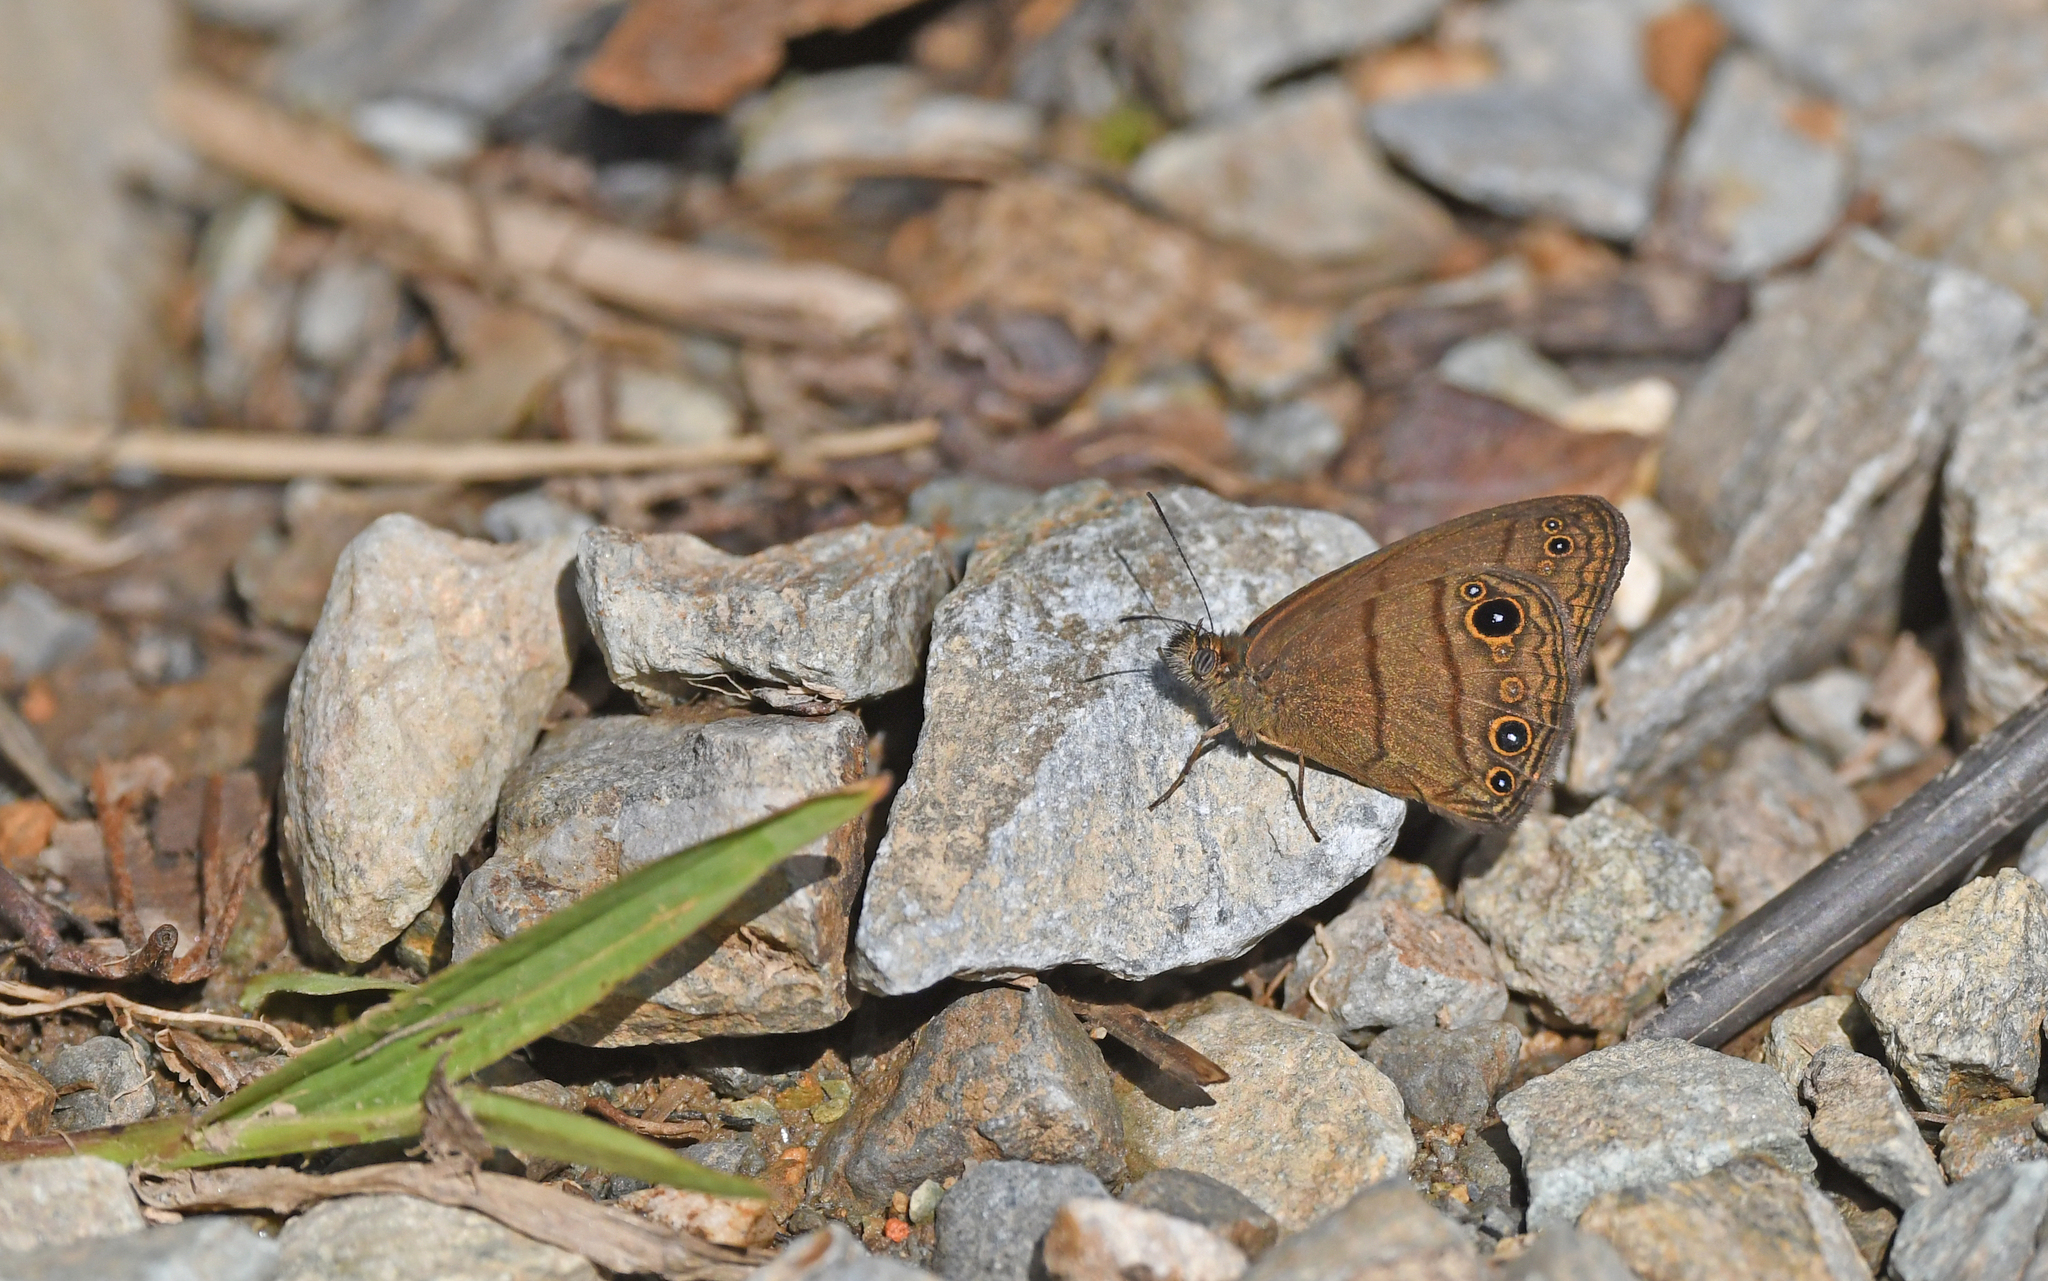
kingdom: Animalia
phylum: Arthropoda
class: Insecta
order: Lepidoptera
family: Nymphalidae
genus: Hermeuptychia
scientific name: Hermeuptychia harmonia
